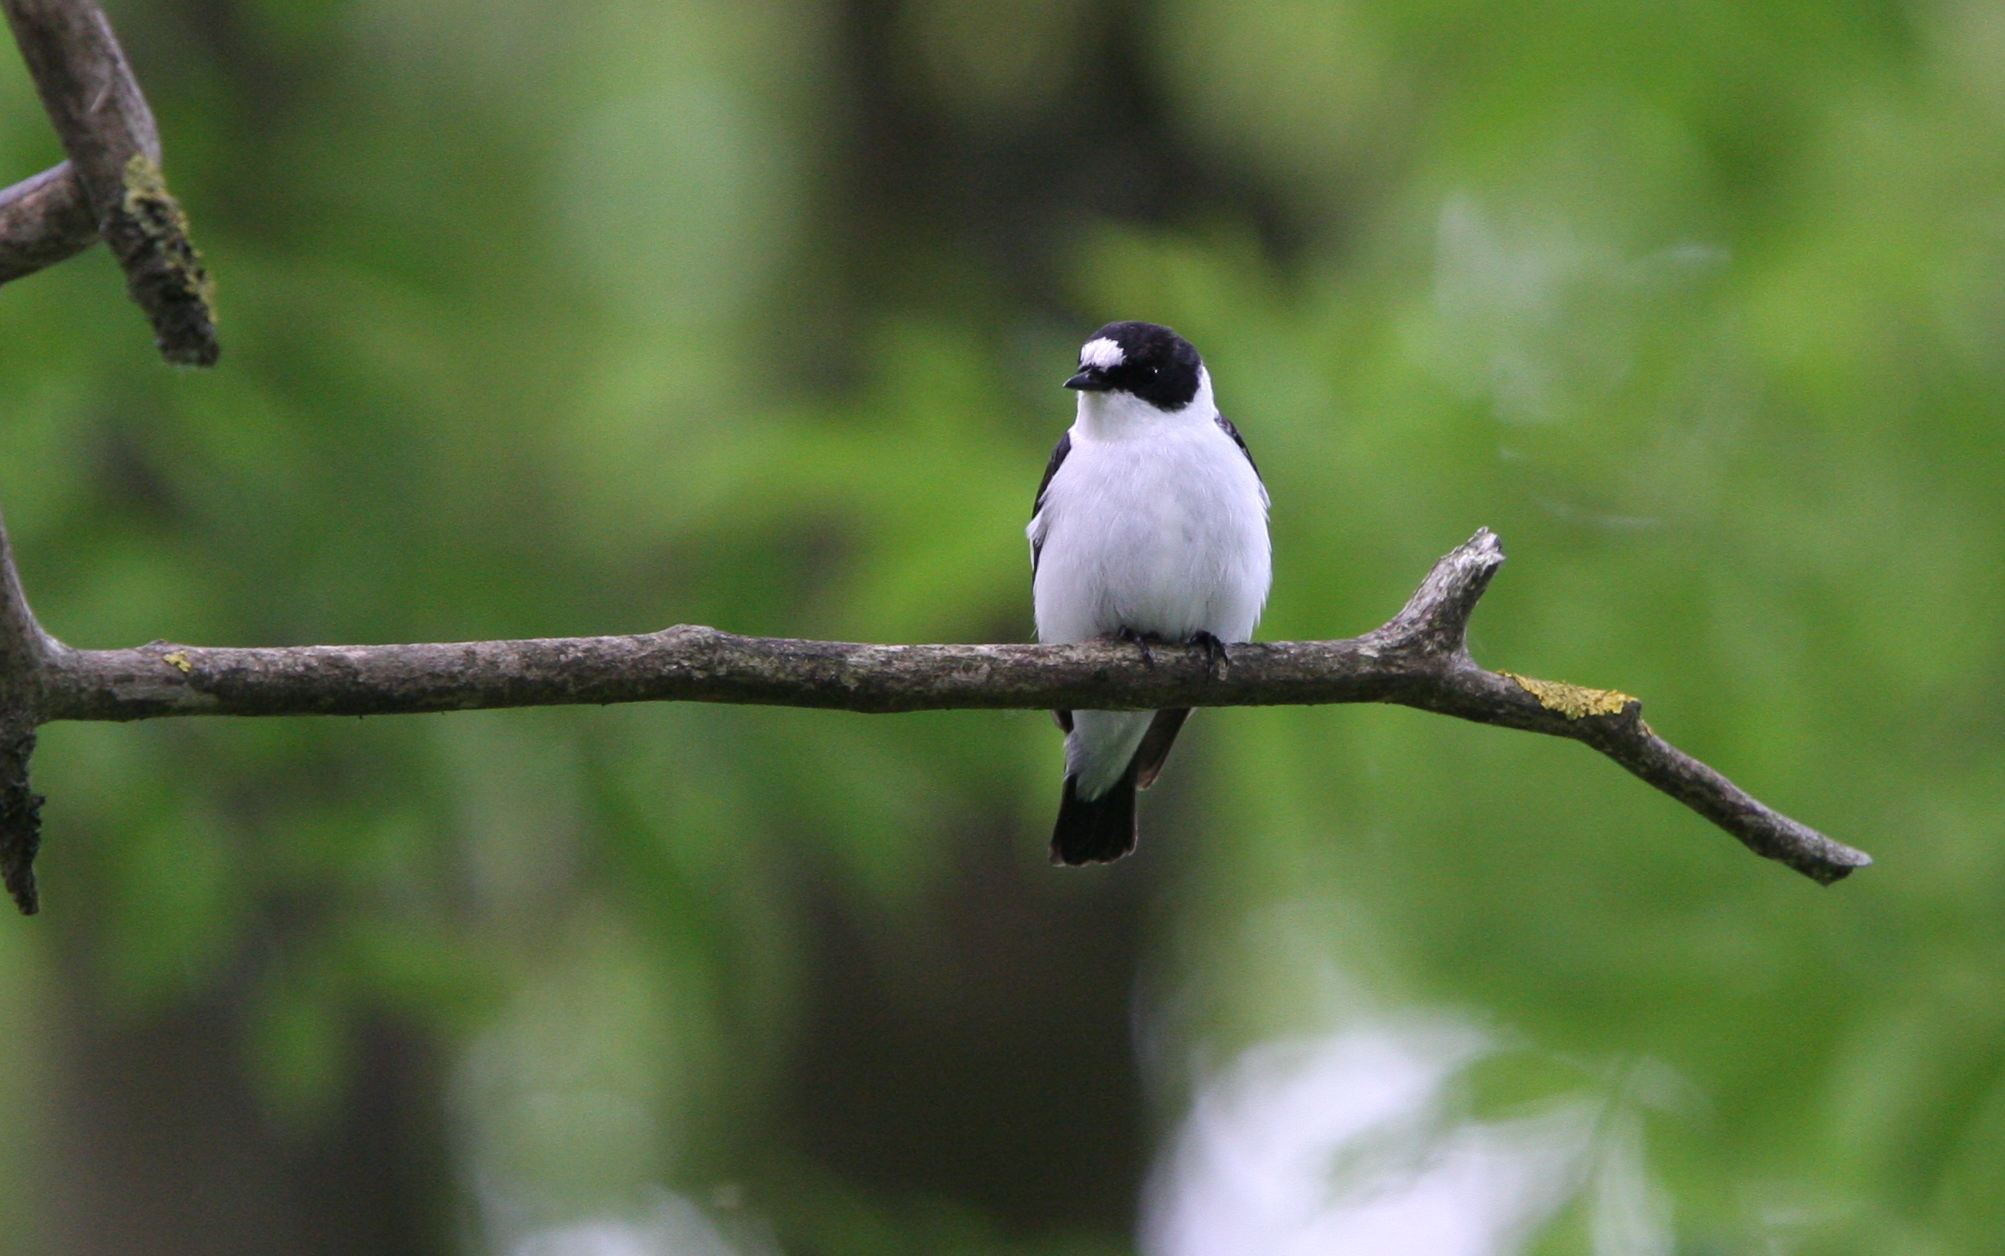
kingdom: Animalia
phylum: Chordata
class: Aves
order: Passeriformes
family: Muscicapidae
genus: Ficedula
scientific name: Ficedula albicollis
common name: Collared flycatcher
